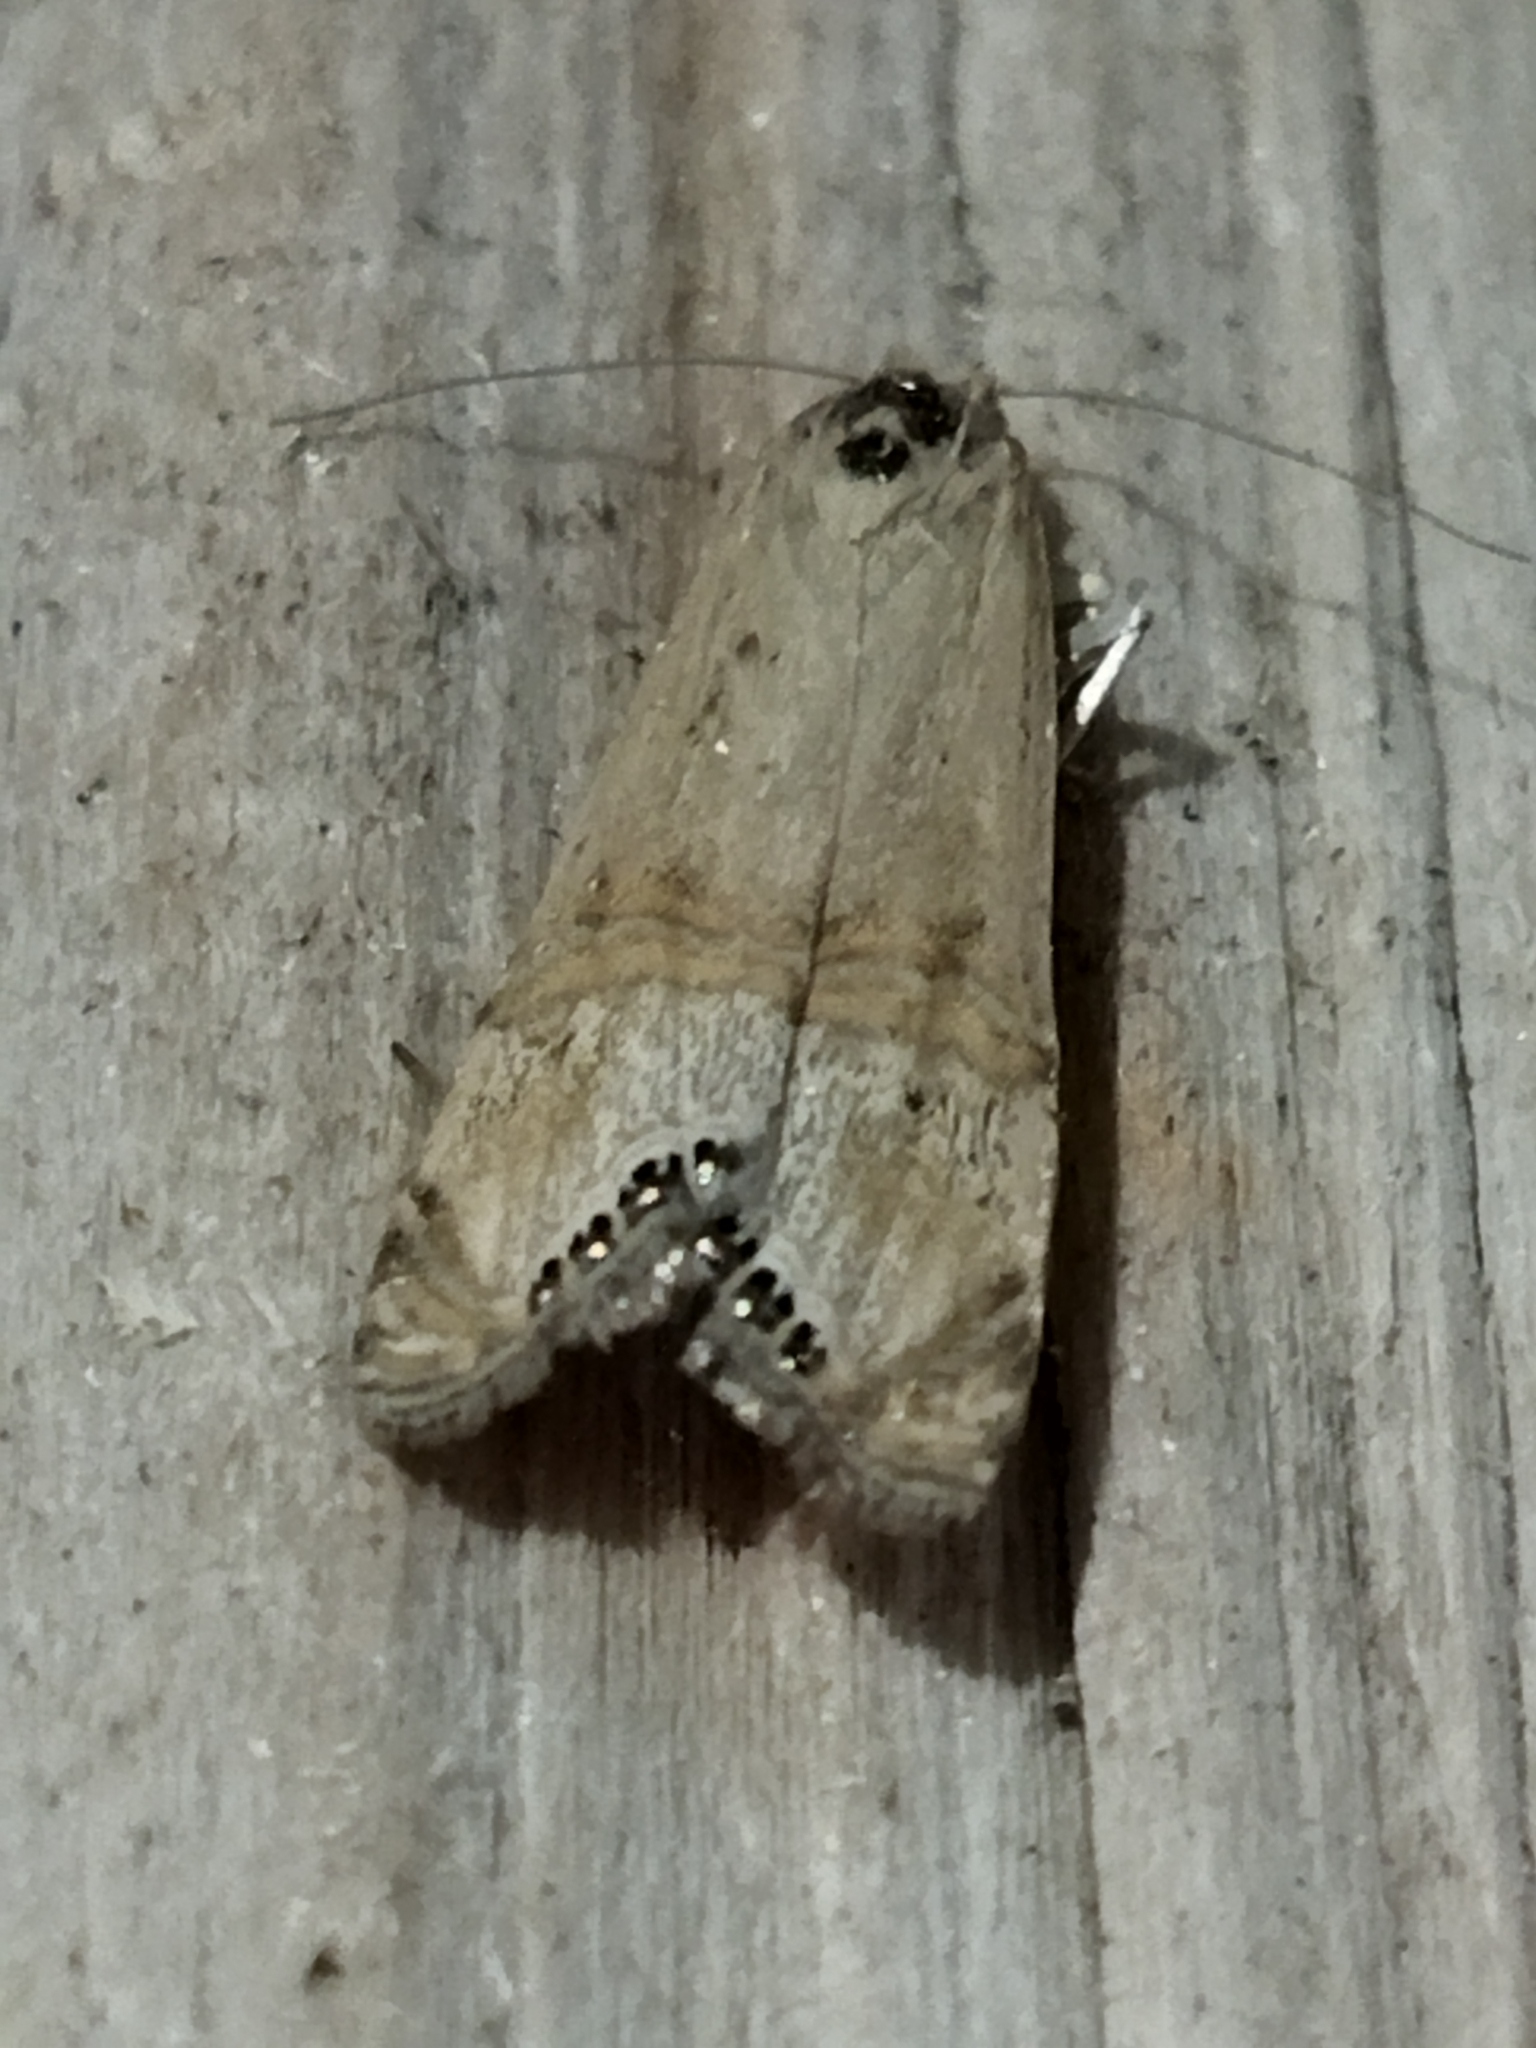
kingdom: Animalia
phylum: Arthropoda
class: Insecta
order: Lepidoptera
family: Crambidae
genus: Euchromius
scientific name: Euchromius ocellea
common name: Necklace veneer moth
